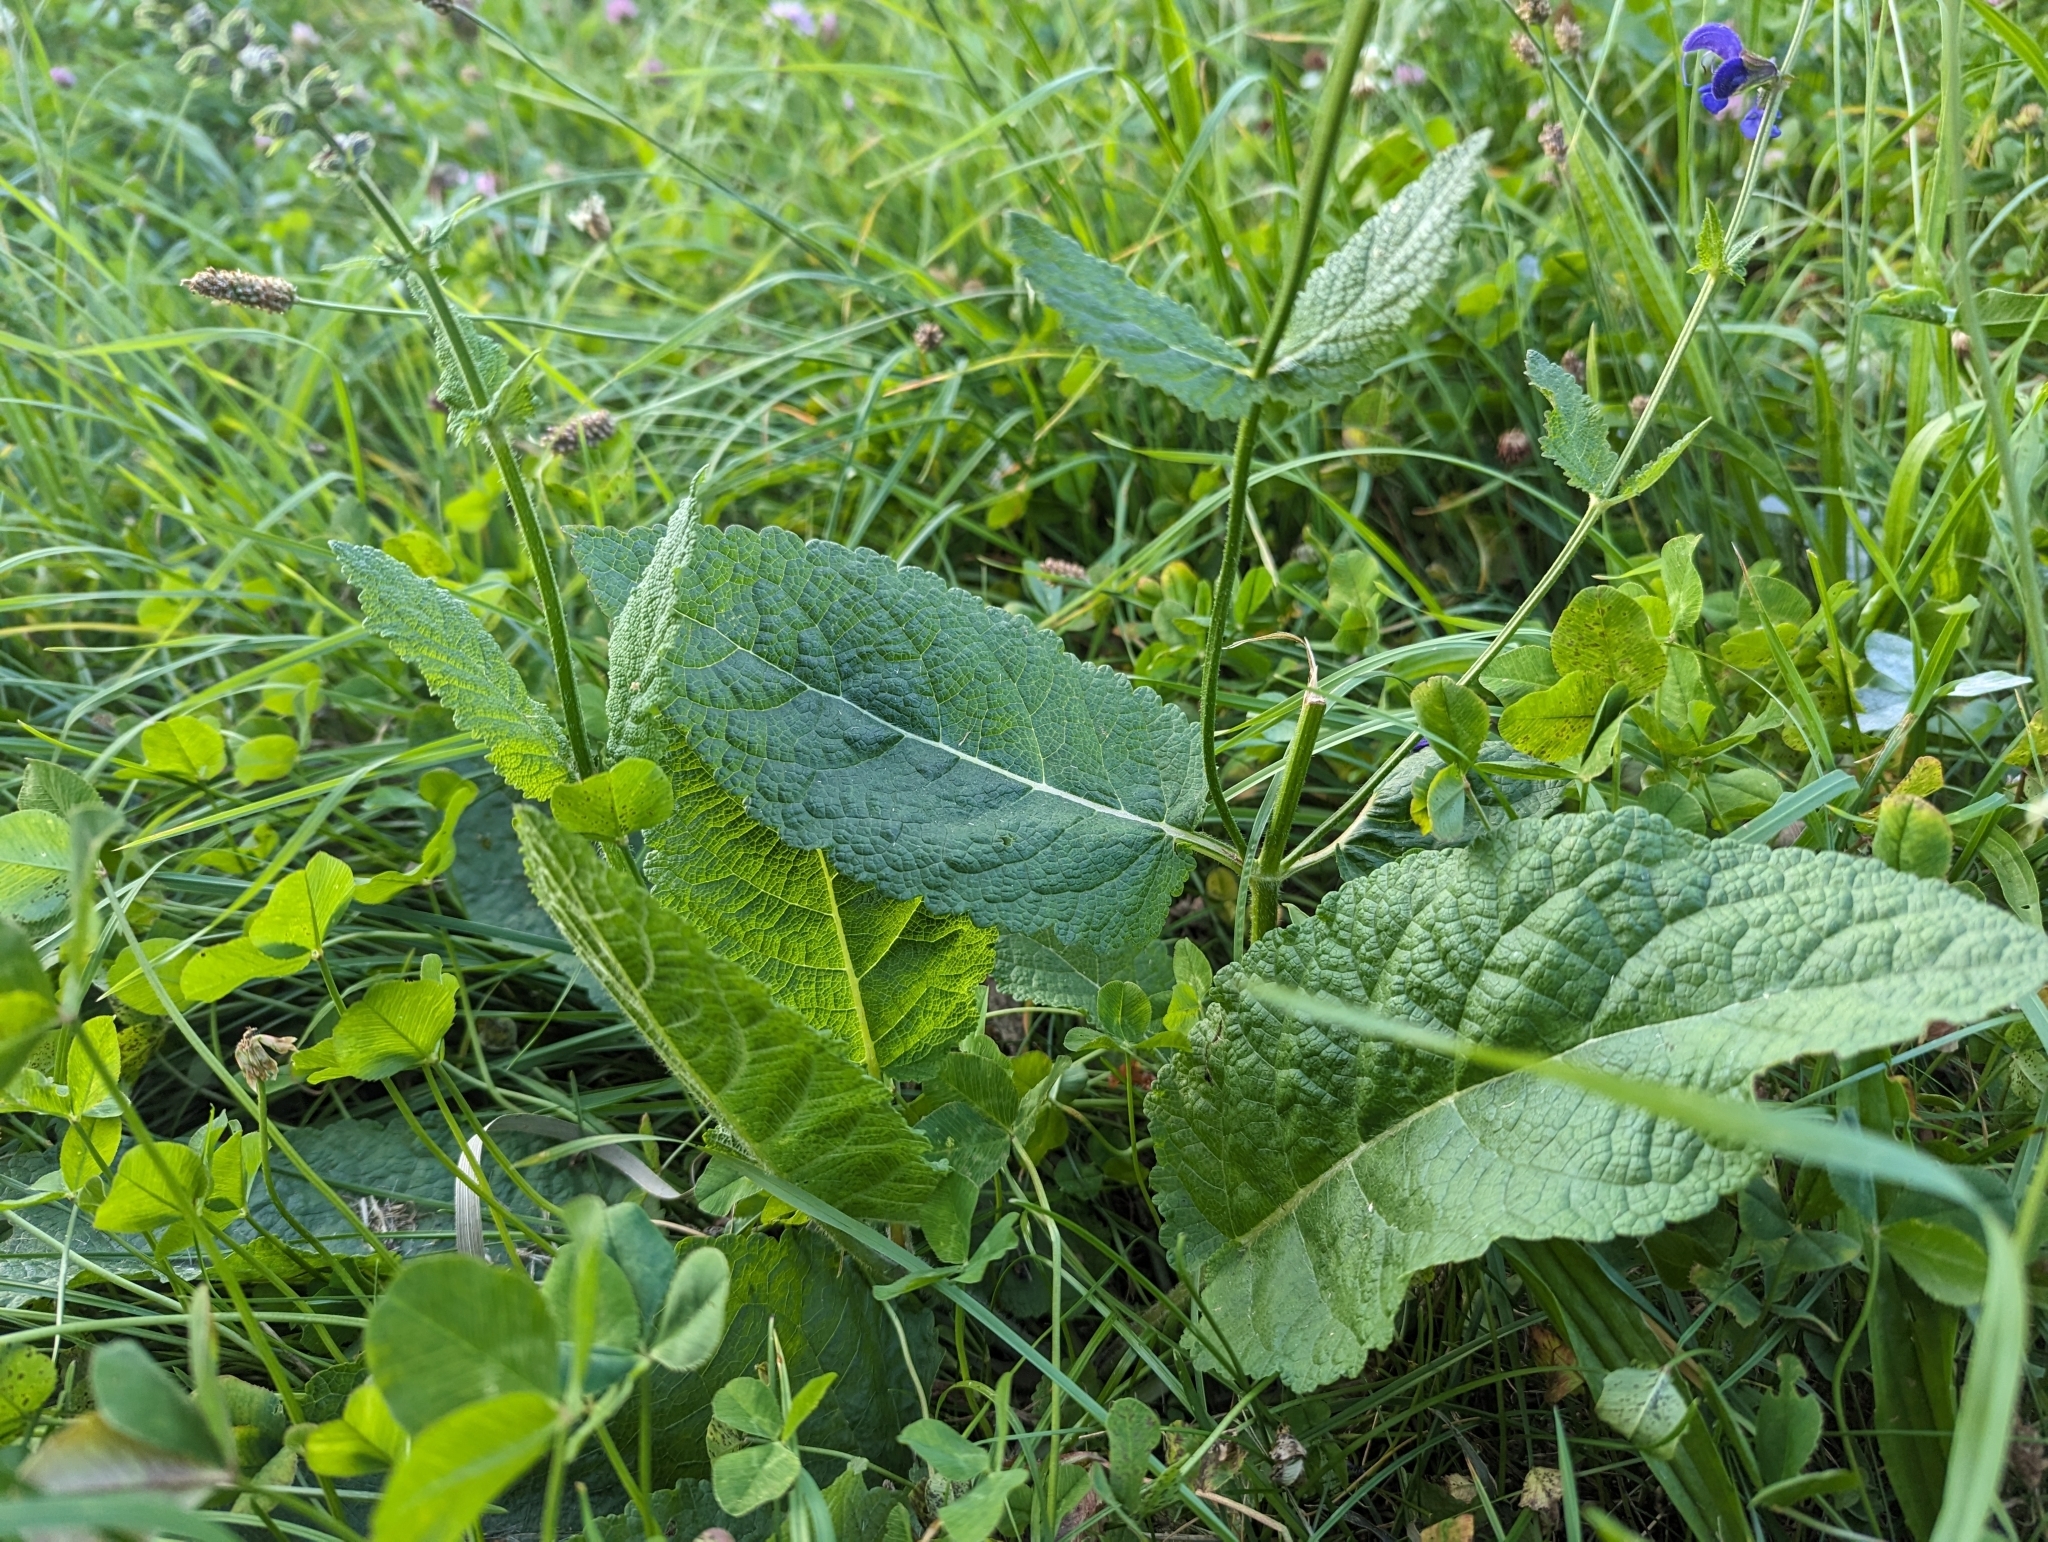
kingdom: Plantae
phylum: Tracheophyta
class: Magnoliopsida
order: Lamiales
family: Lamiaceae
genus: Salvia
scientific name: Salvia pratensis
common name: Meadow sage
